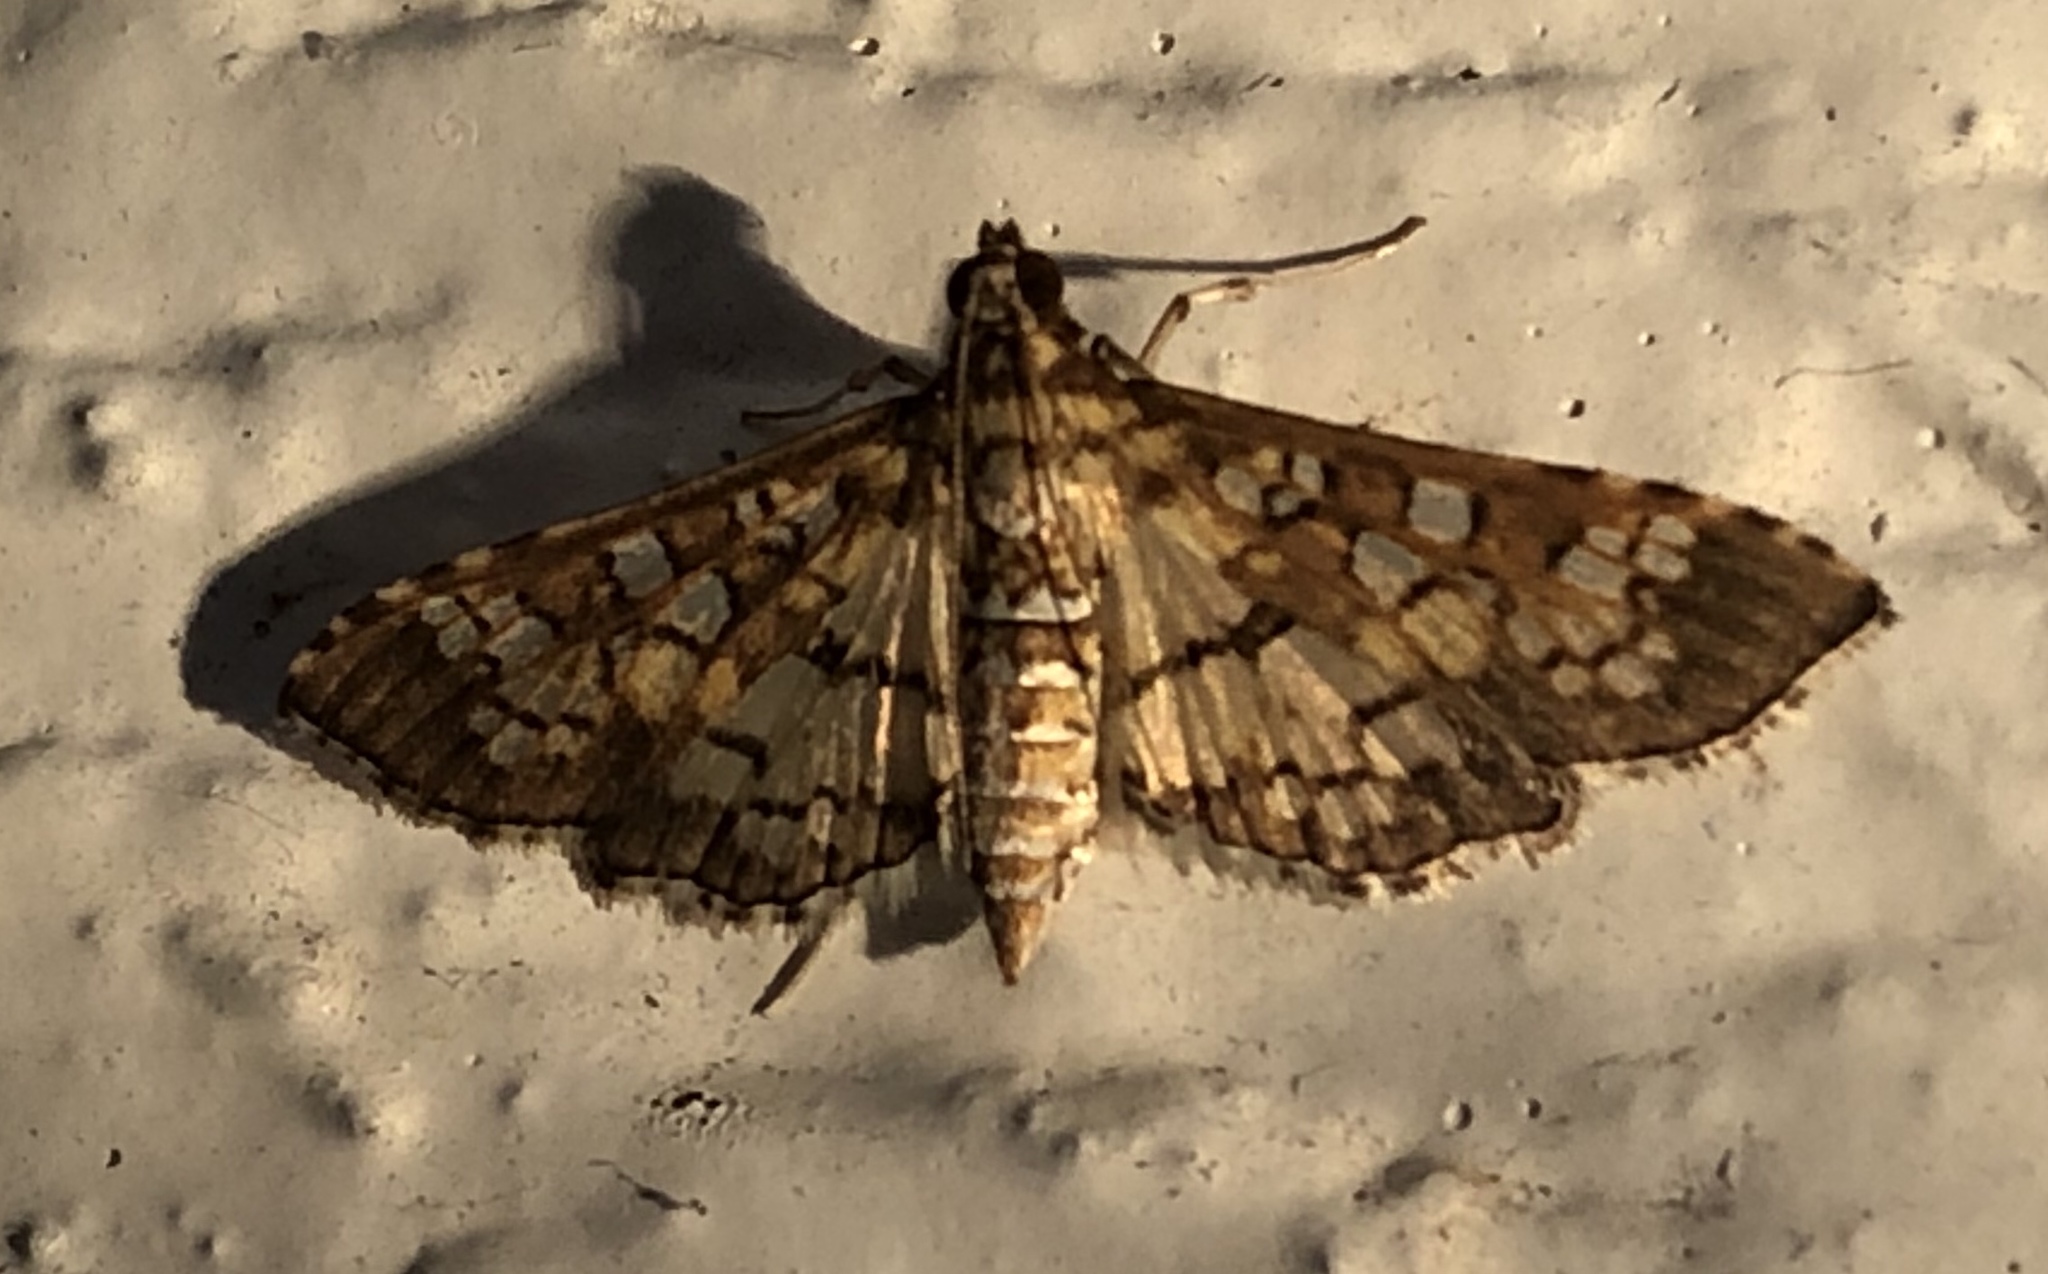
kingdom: Animalia
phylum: Arthropoda
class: Insecta
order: Lepidoptera
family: Crambidae
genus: Samea
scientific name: Samea ecclesialis
